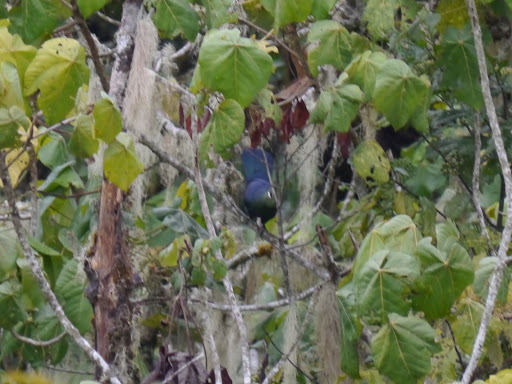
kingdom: Animalia
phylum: Chordata
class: Aves
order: Musophagiformes
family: Musophagidae
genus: Tauraco
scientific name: Tauraco macrorhynchus
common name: Yellow-billed turaco
